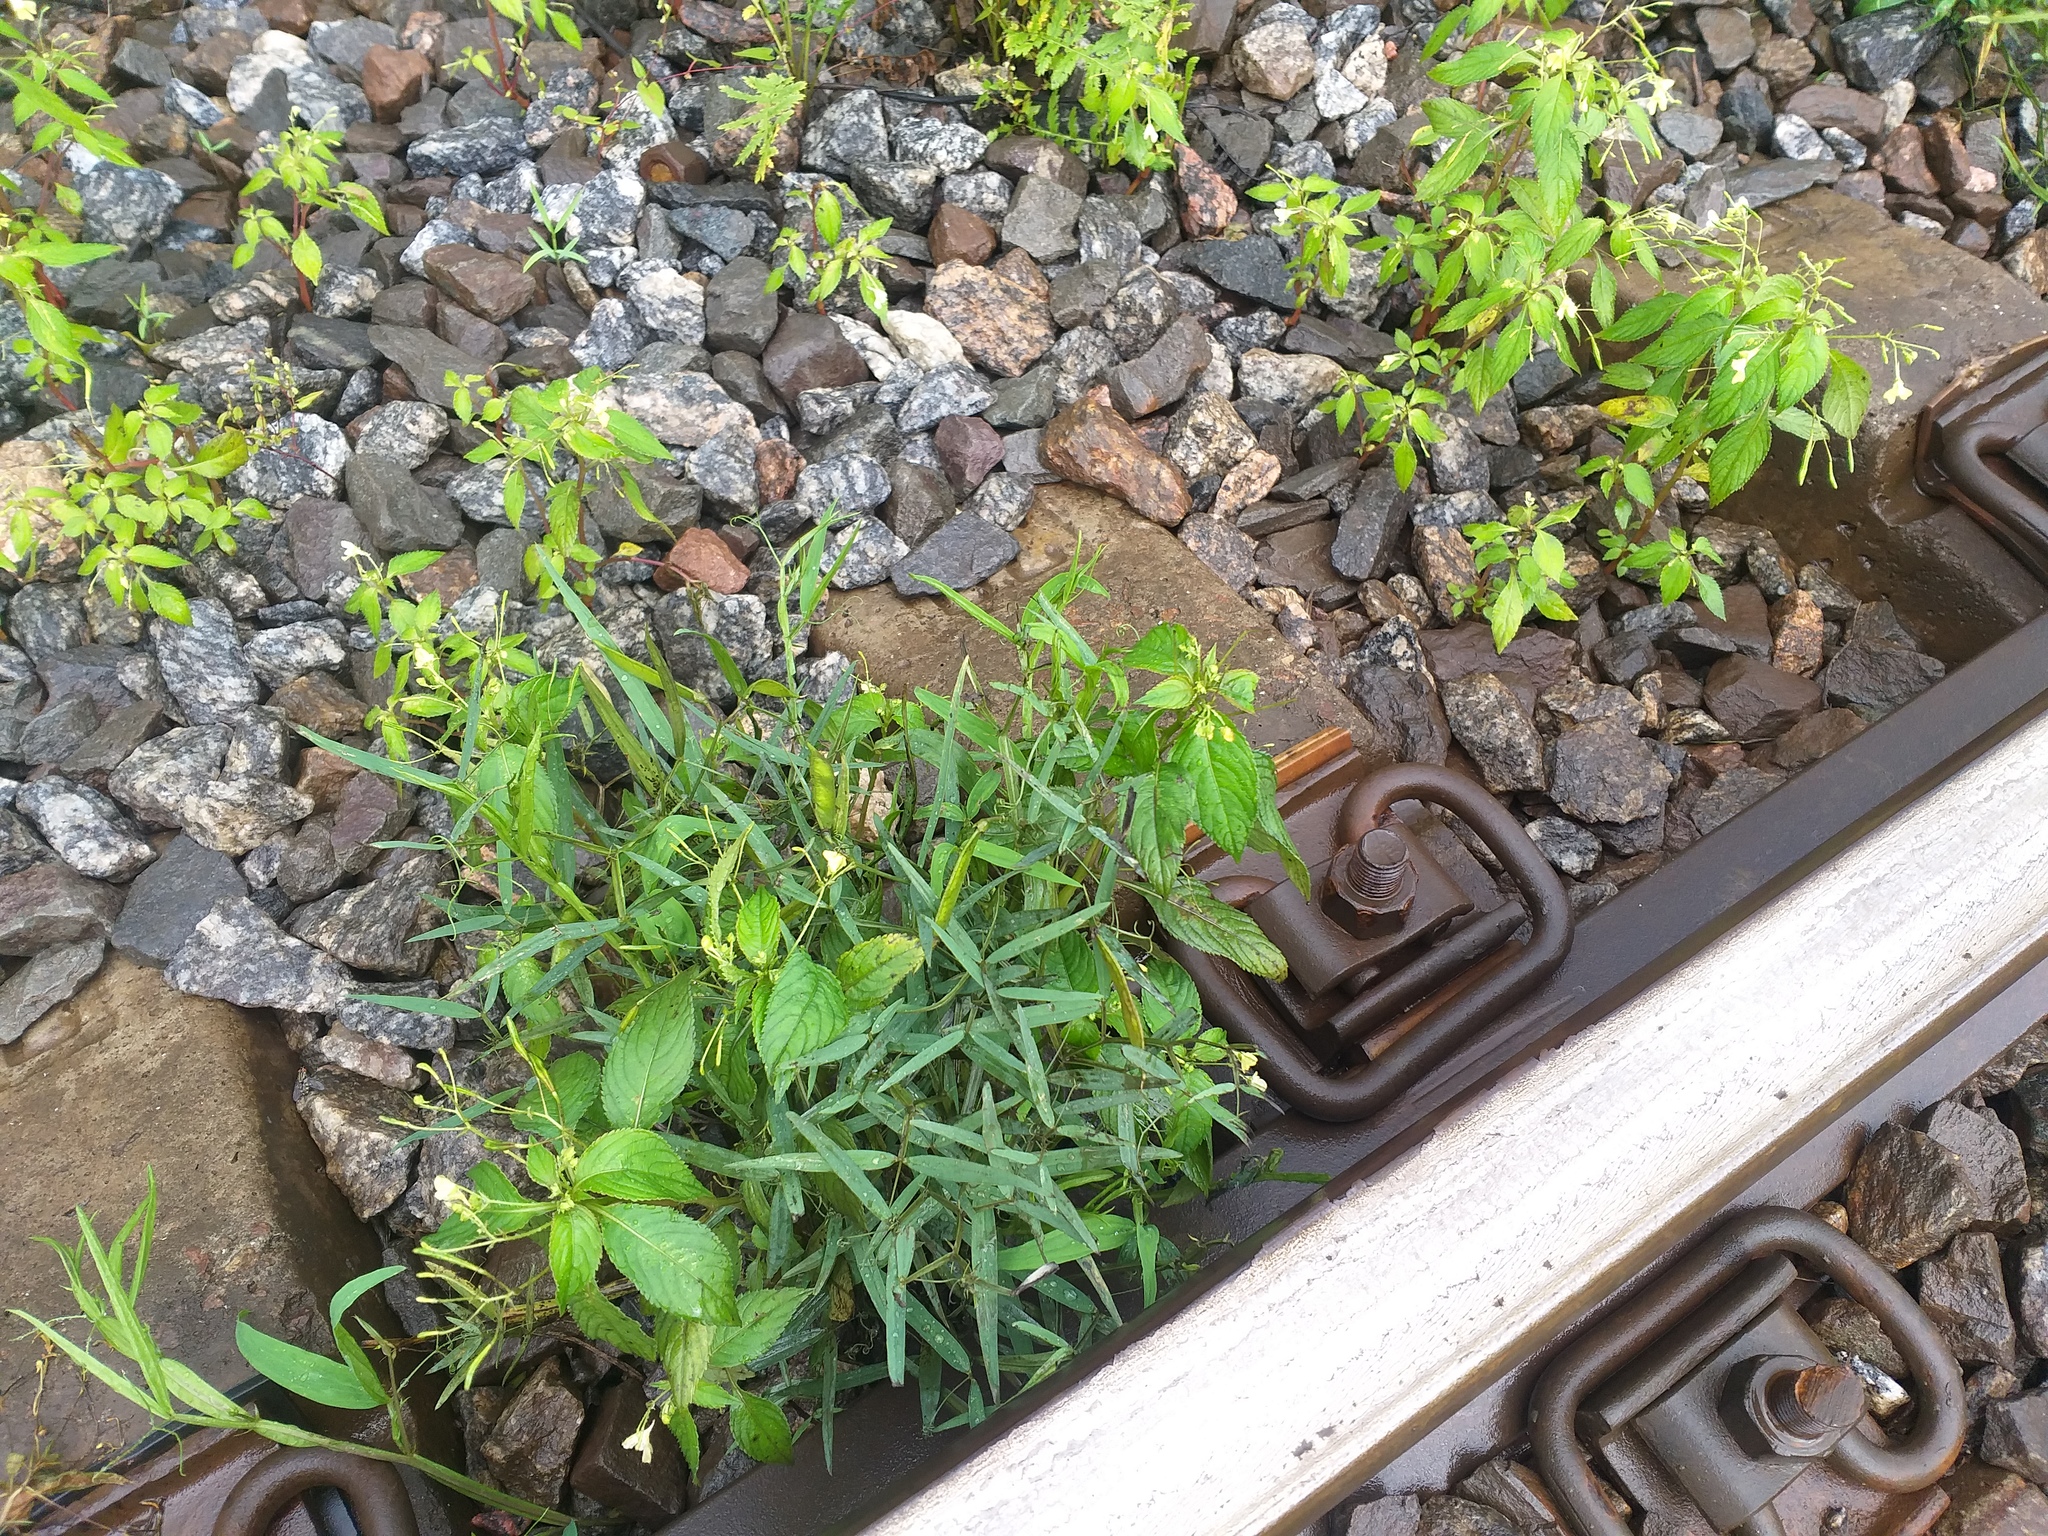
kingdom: Plantae
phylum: Tracheophyta
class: Magnoliopsida
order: Fabales
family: Fabaceae
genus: Lathyrus
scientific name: Lathyrus sylvestris
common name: Flat pea
